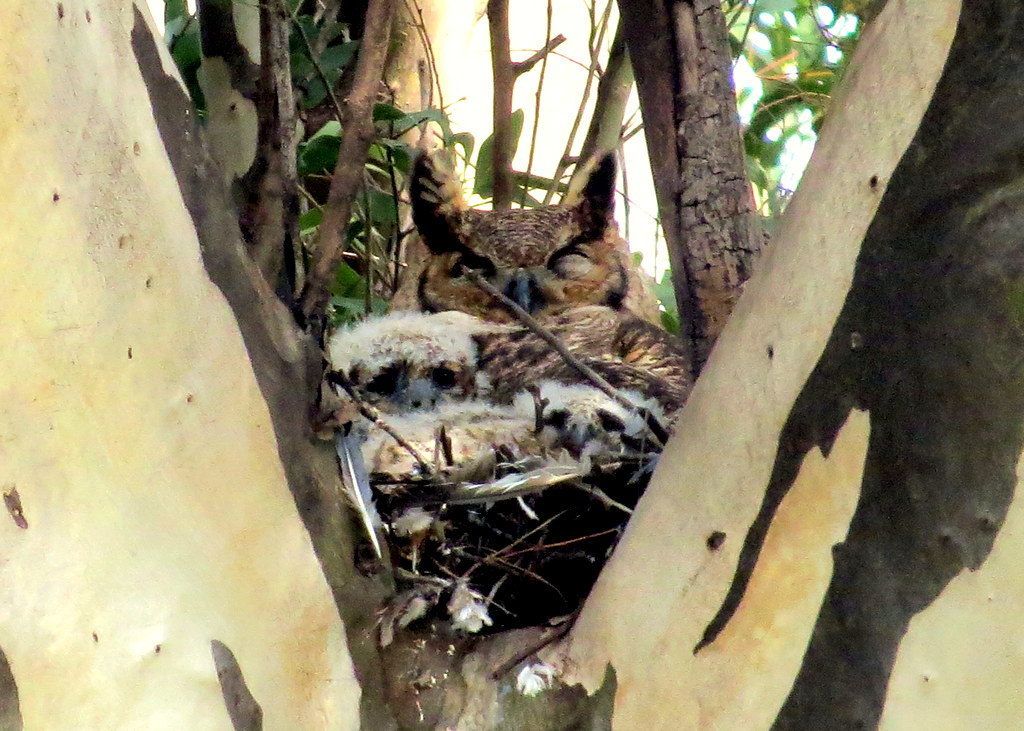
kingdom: Animalia
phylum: Chordata
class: Aves
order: Strigiformes
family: Strigidae
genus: Bubo
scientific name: Bubo virginianus
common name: Great horned owl
